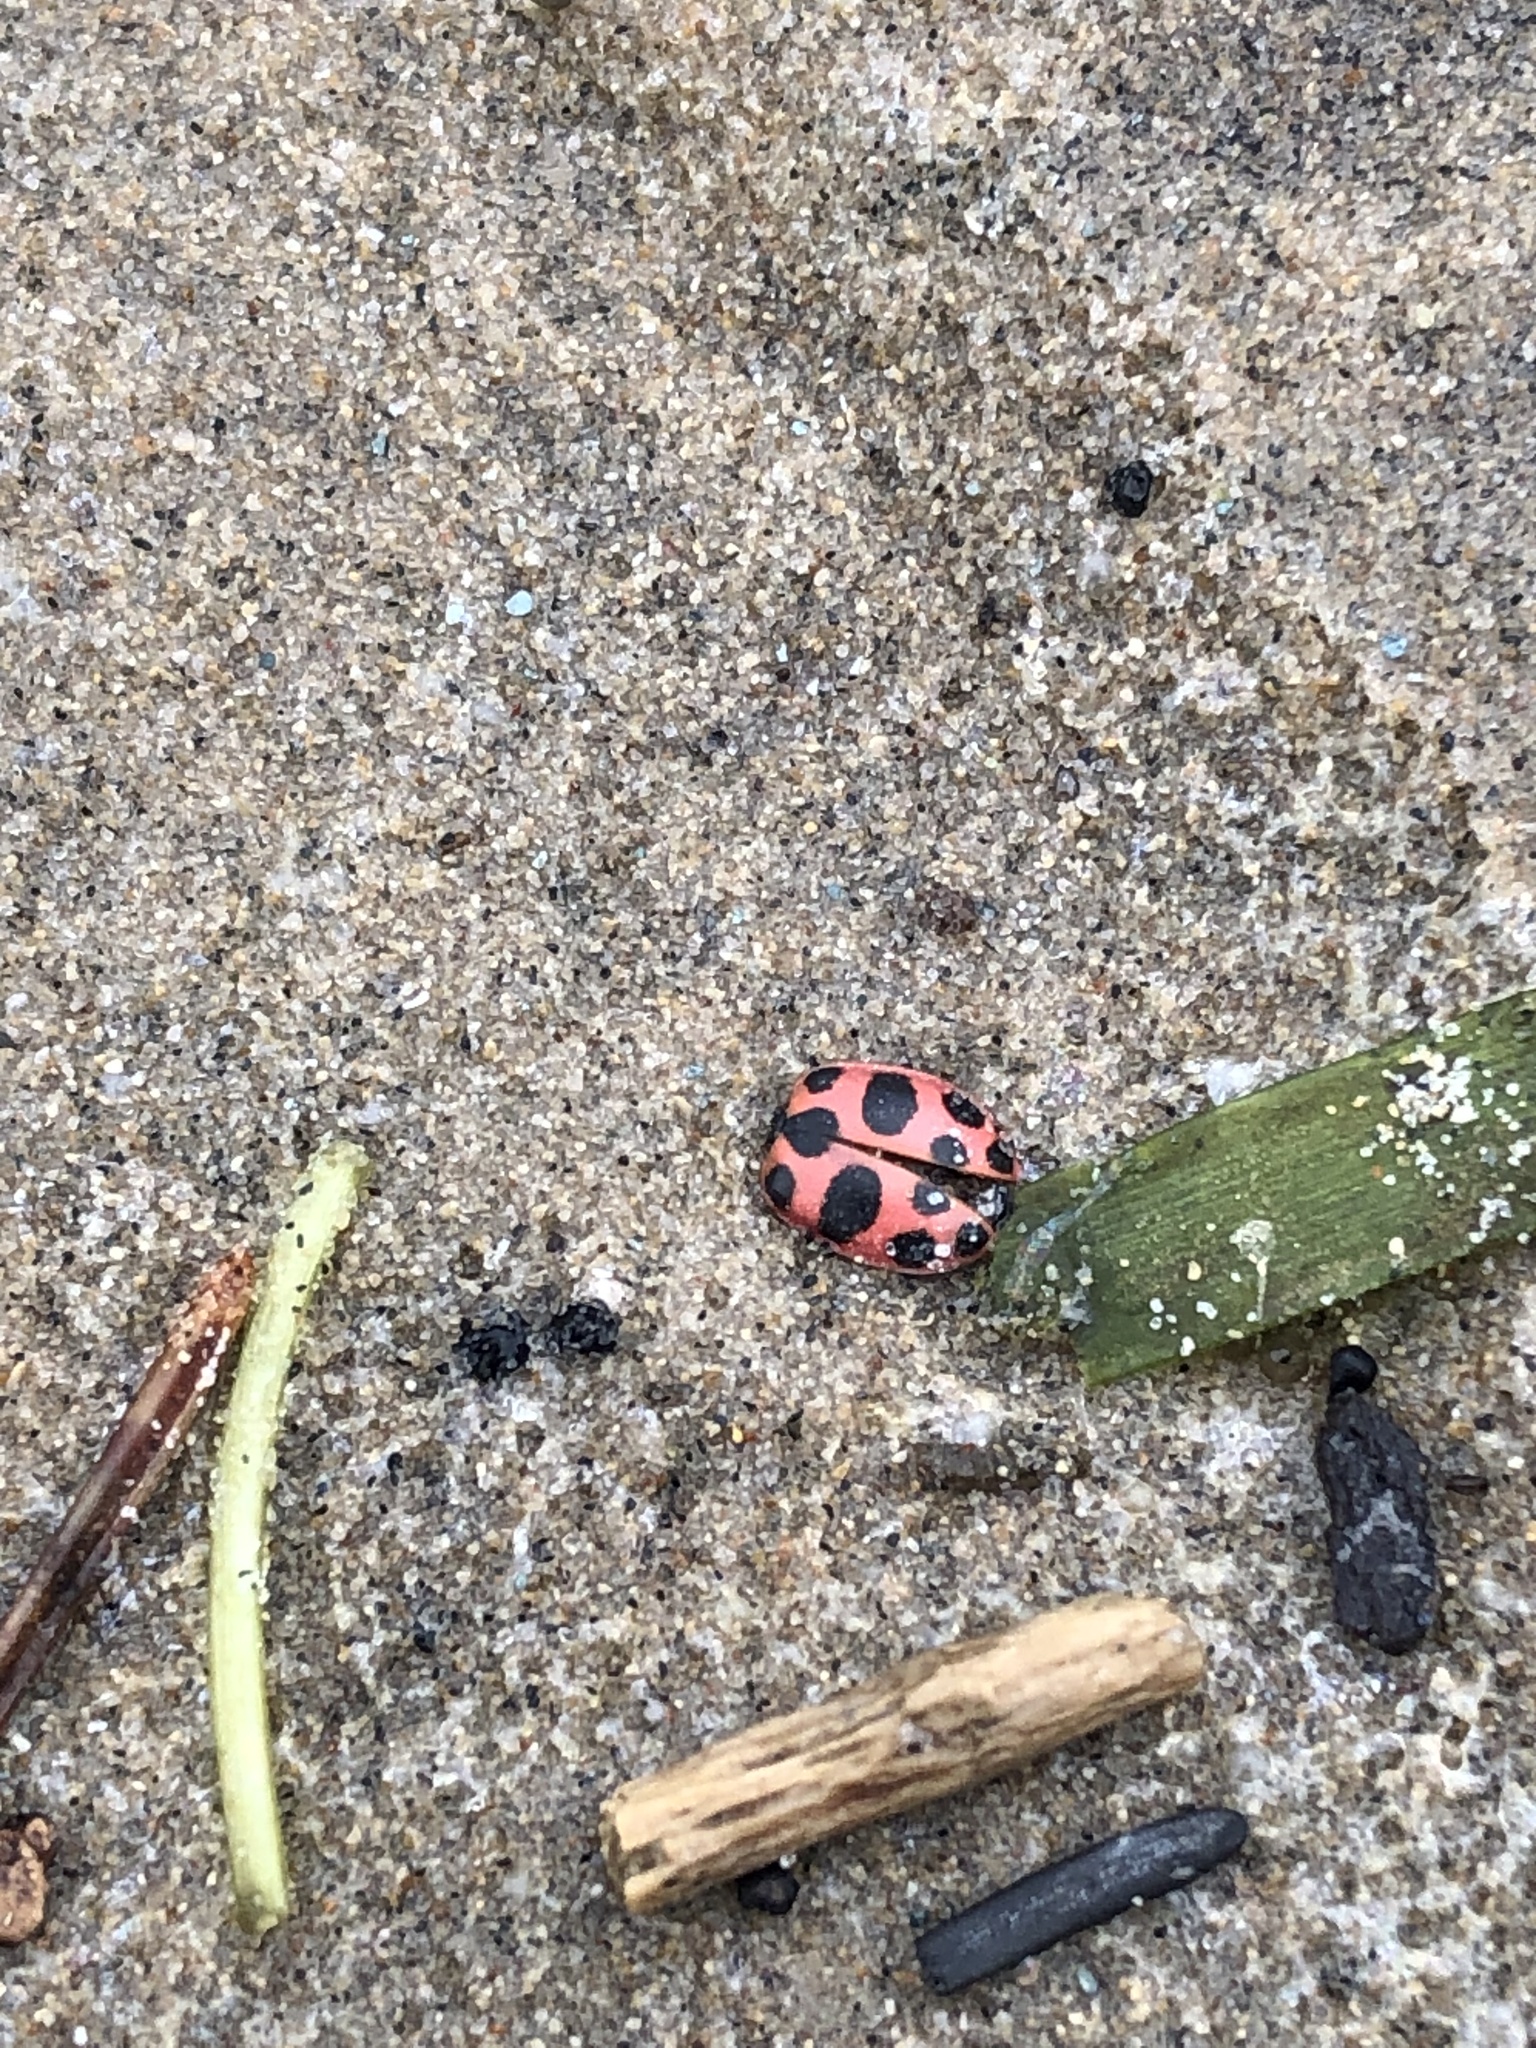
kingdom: Animalia
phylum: Arthropoda
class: Insecta
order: Coleoptera
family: Coccinellidae
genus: Coleomegilla
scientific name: Coleomegilla maculata
